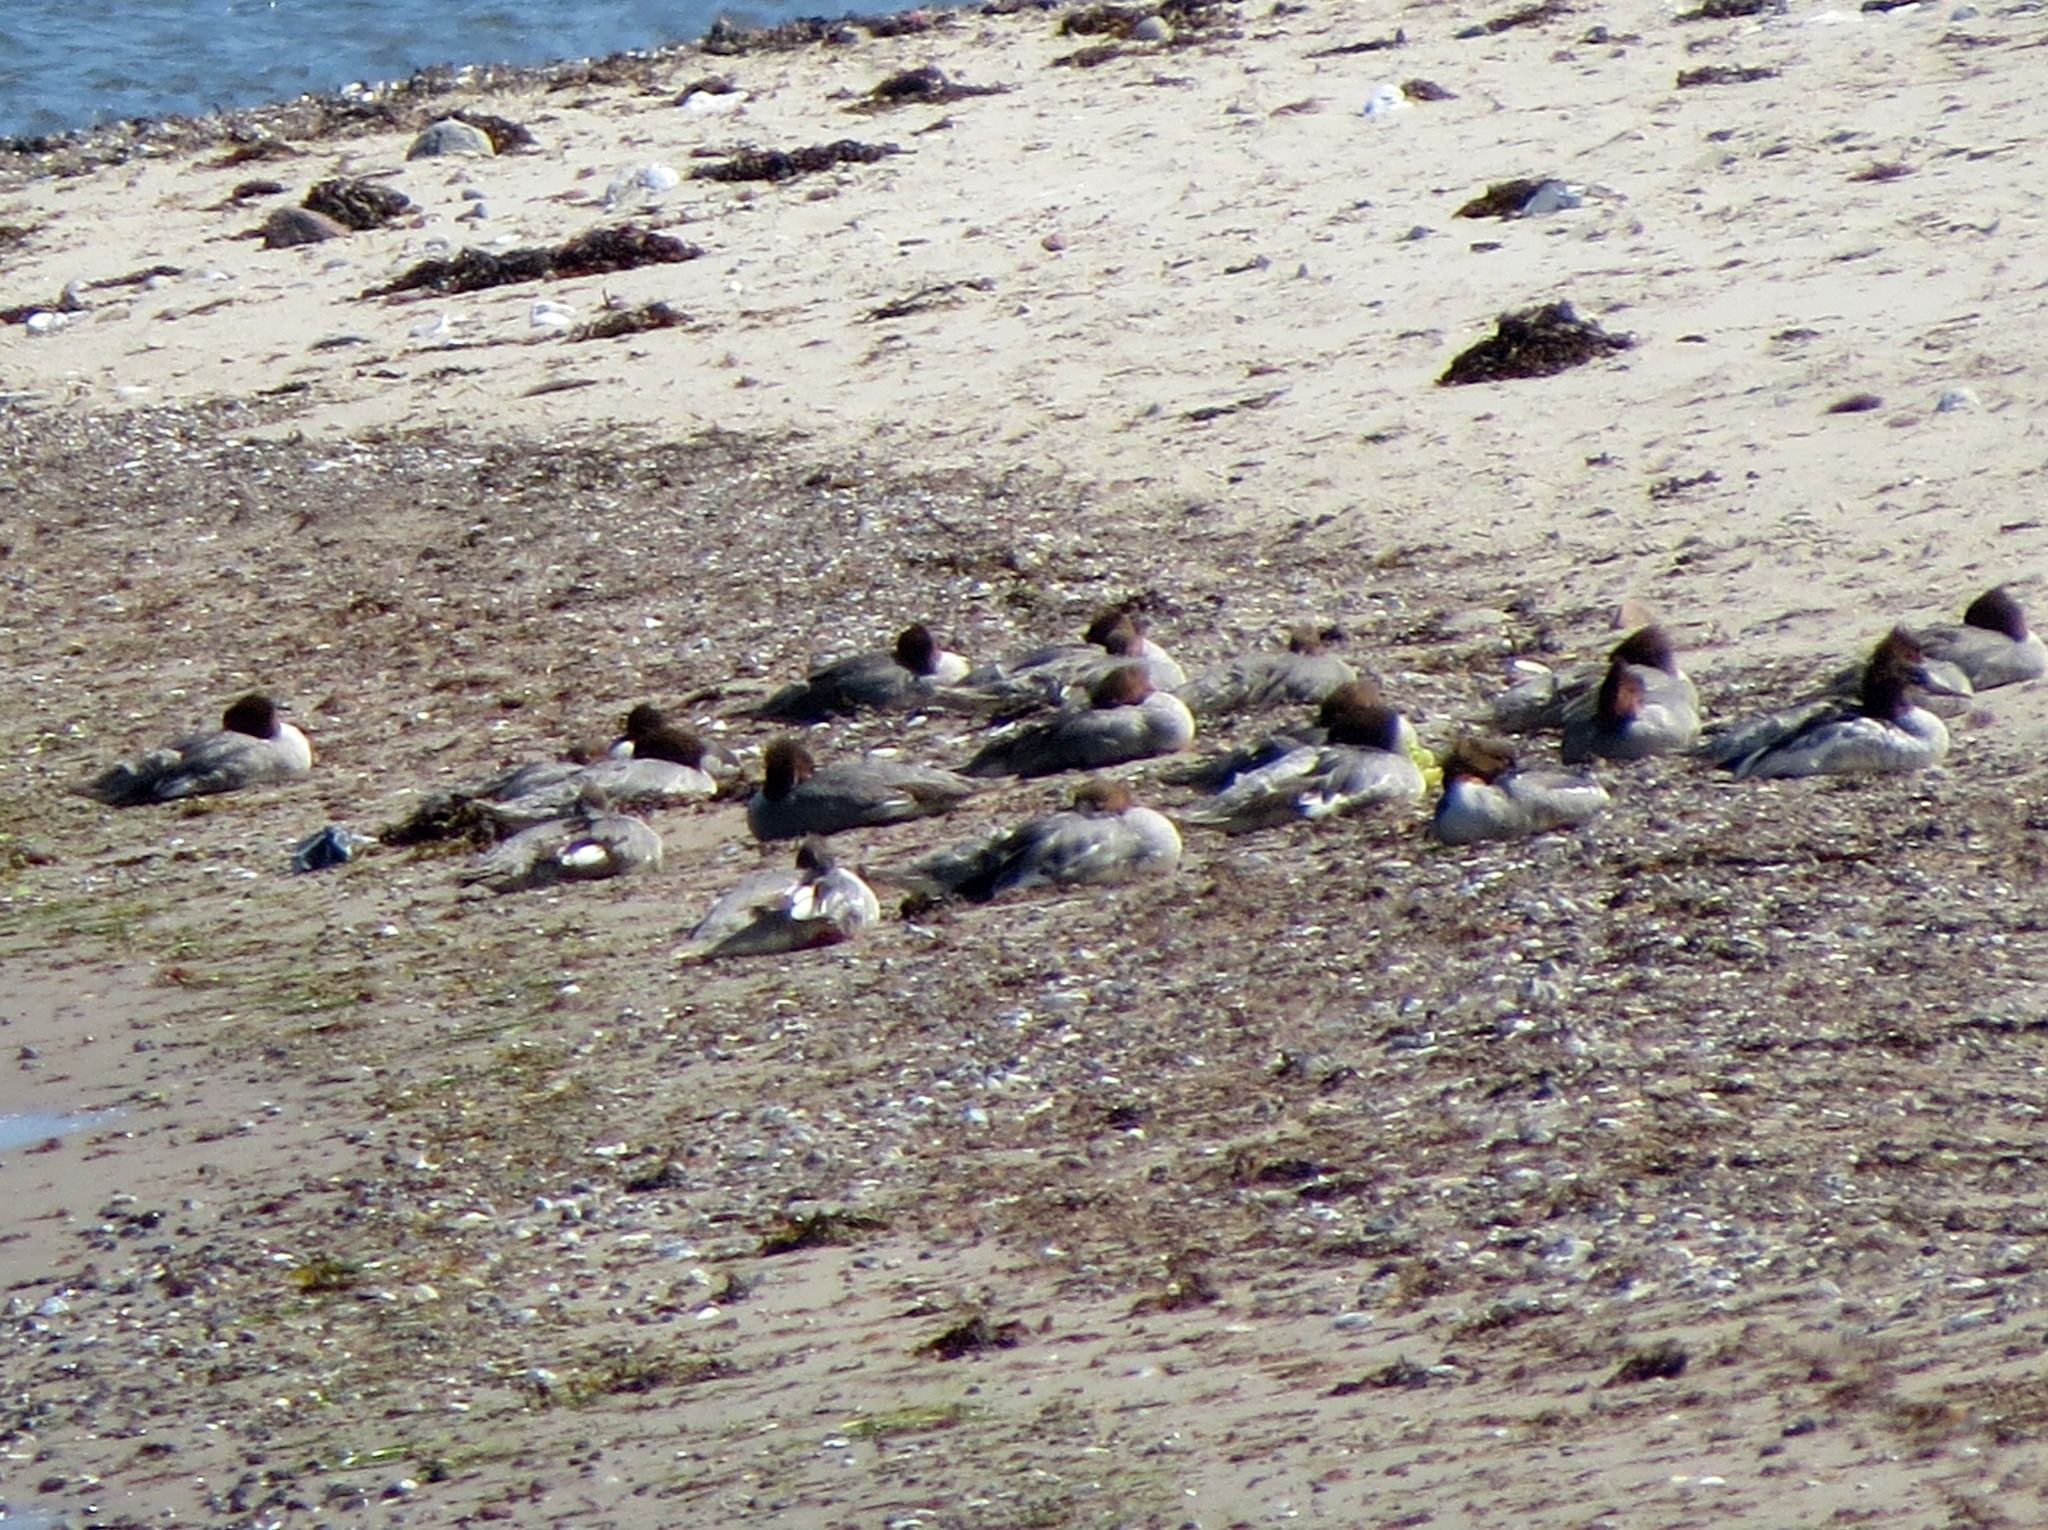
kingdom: Animalia
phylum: Chordata
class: Aves
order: Anseriformes
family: Anatidae
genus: Mergus
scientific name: Mergus merganser
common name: Common merganser
